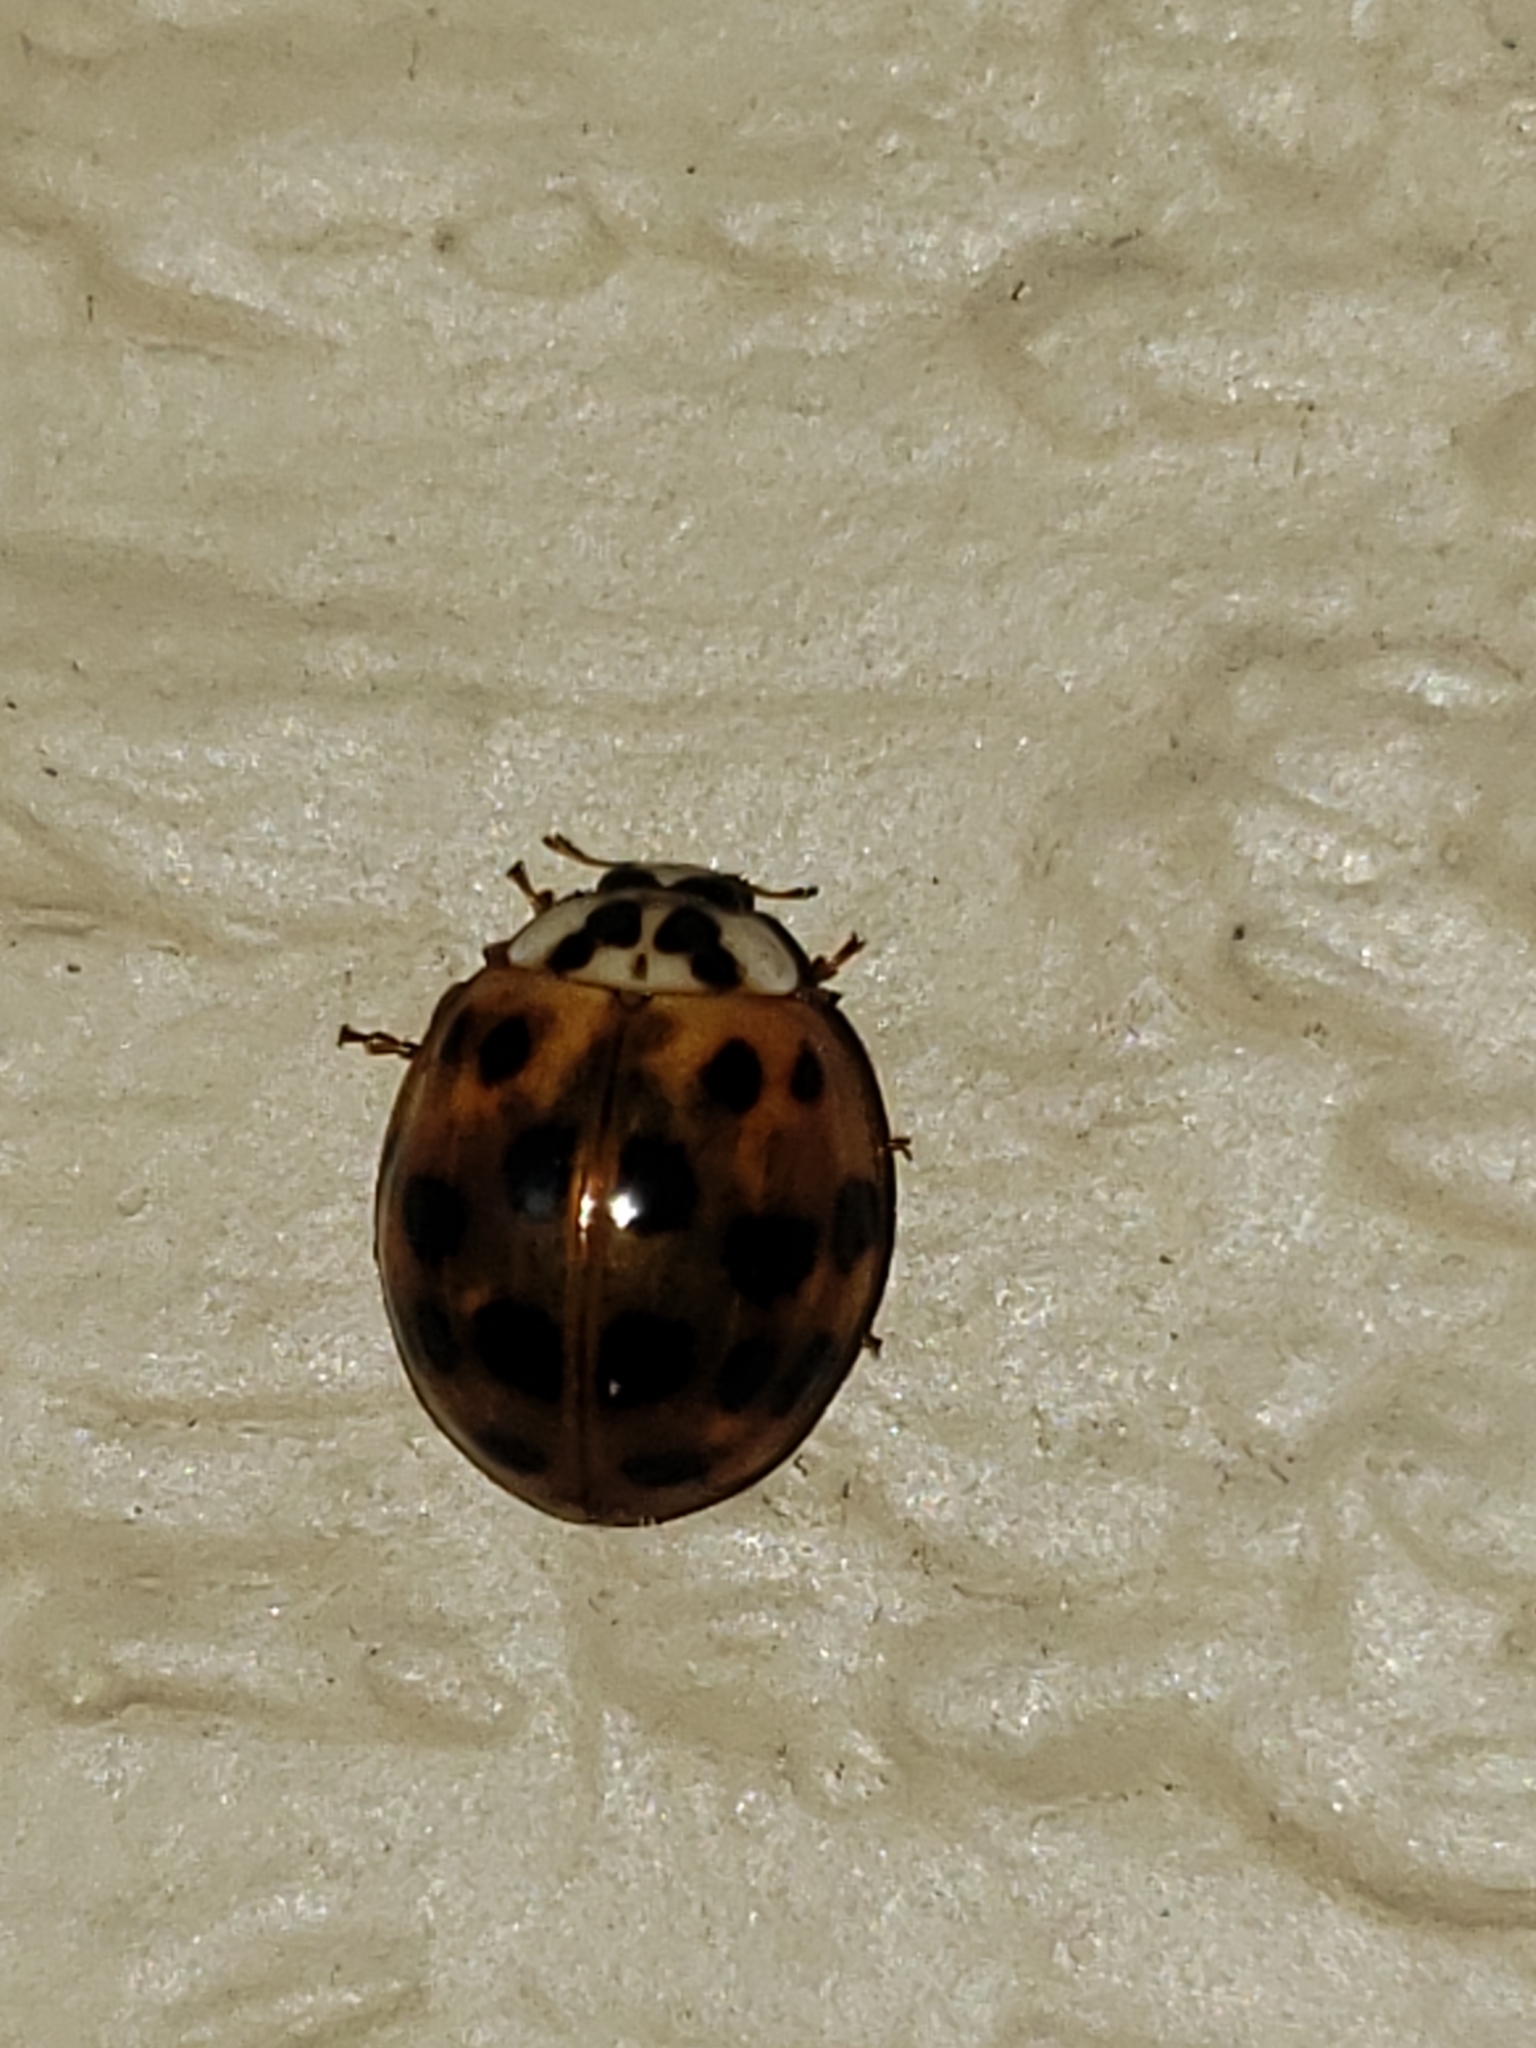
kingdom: Animalia
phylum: Arthropoda
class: Insecta
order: Coleoptera
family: Coccinellidae
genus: Harmonia
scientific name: Harmonia axyridis
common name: Harlequin ladybird
